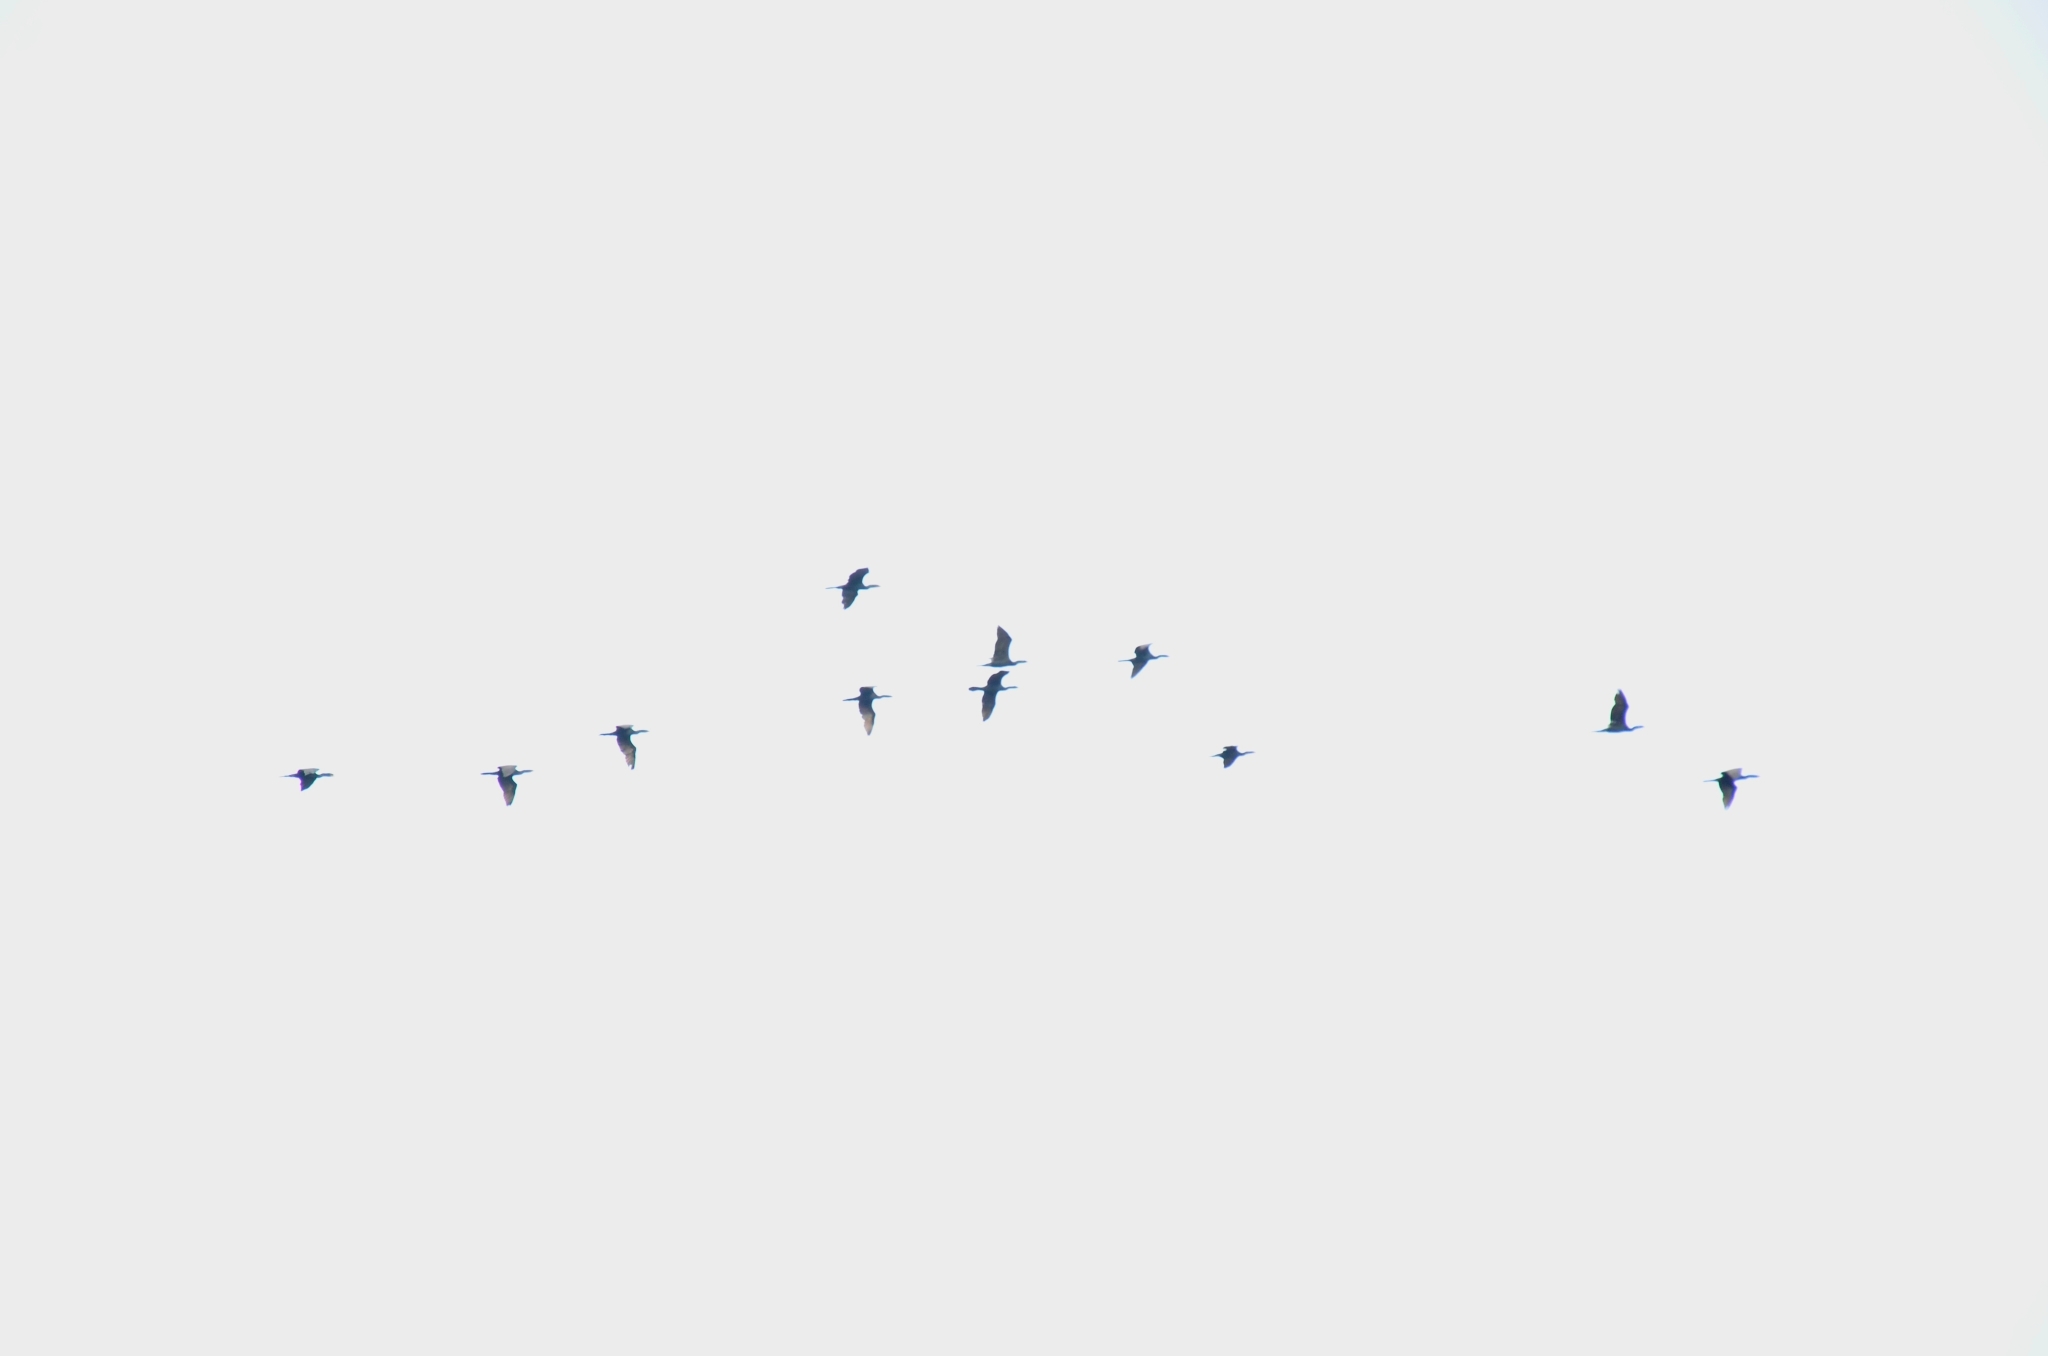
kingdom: Animalia
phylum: Chordata
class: Aves
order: Suliformes
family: Phalacrocoracidae
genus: Phalacrocorax
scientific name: Phalacrocorax fuscicollis
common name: Indian cormorant
